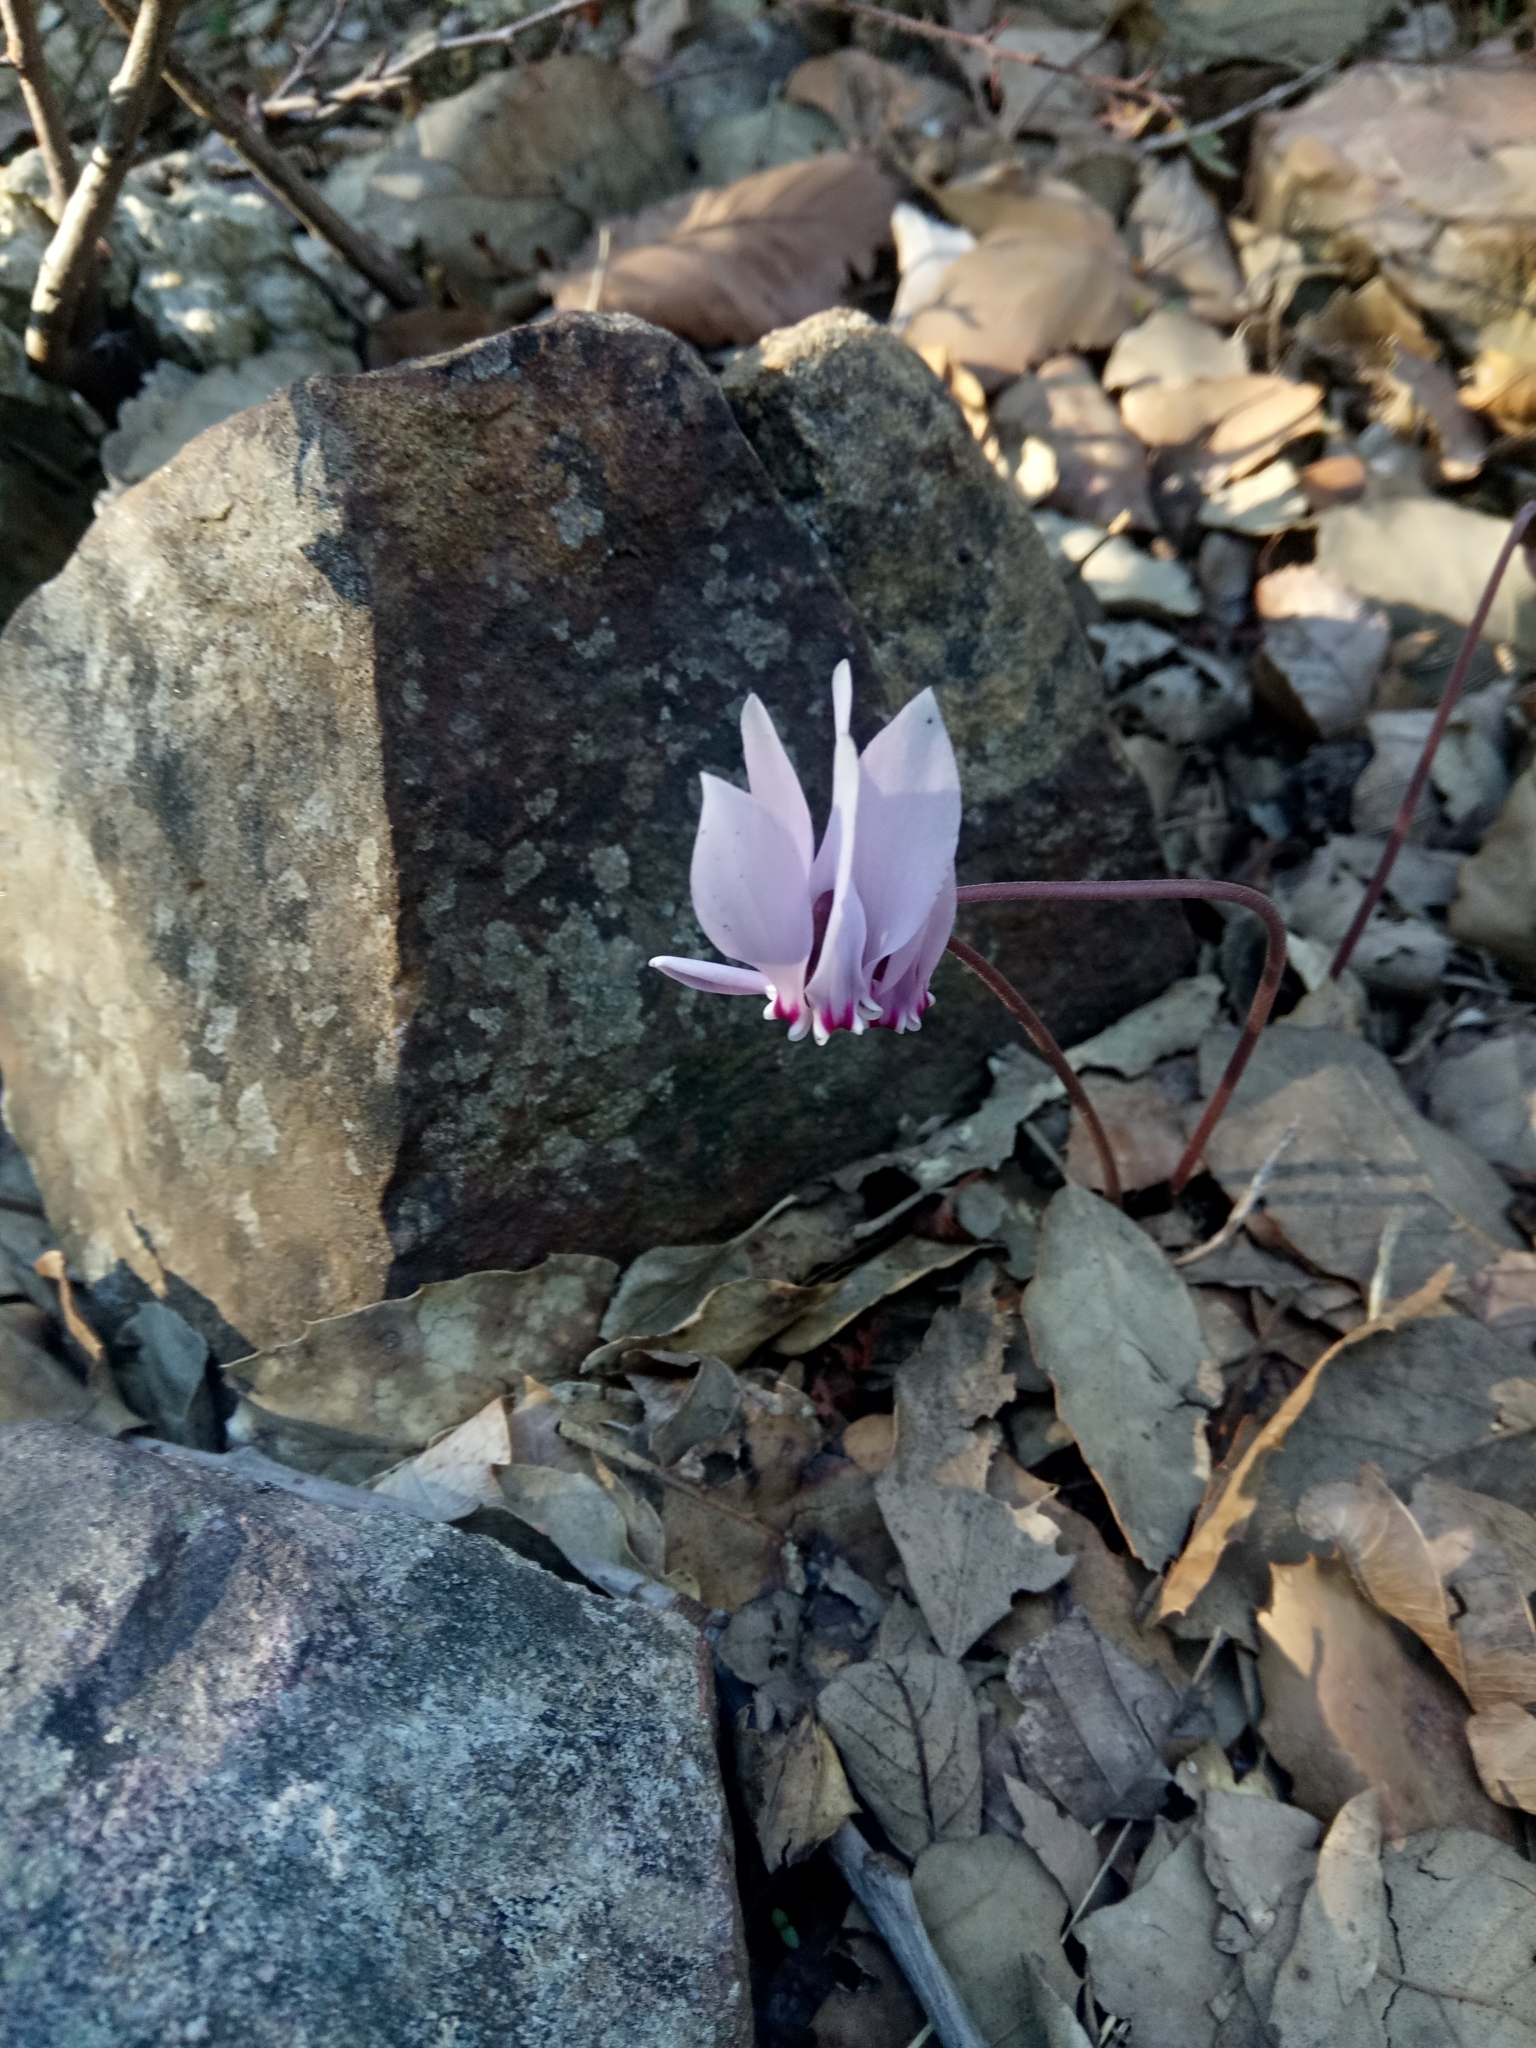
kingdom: Plantae
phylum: Tracheophyta
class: Magnoliopsida
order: Ericales
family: Primulaceae
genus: Cyclamen
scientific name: Cyclamen africanum
